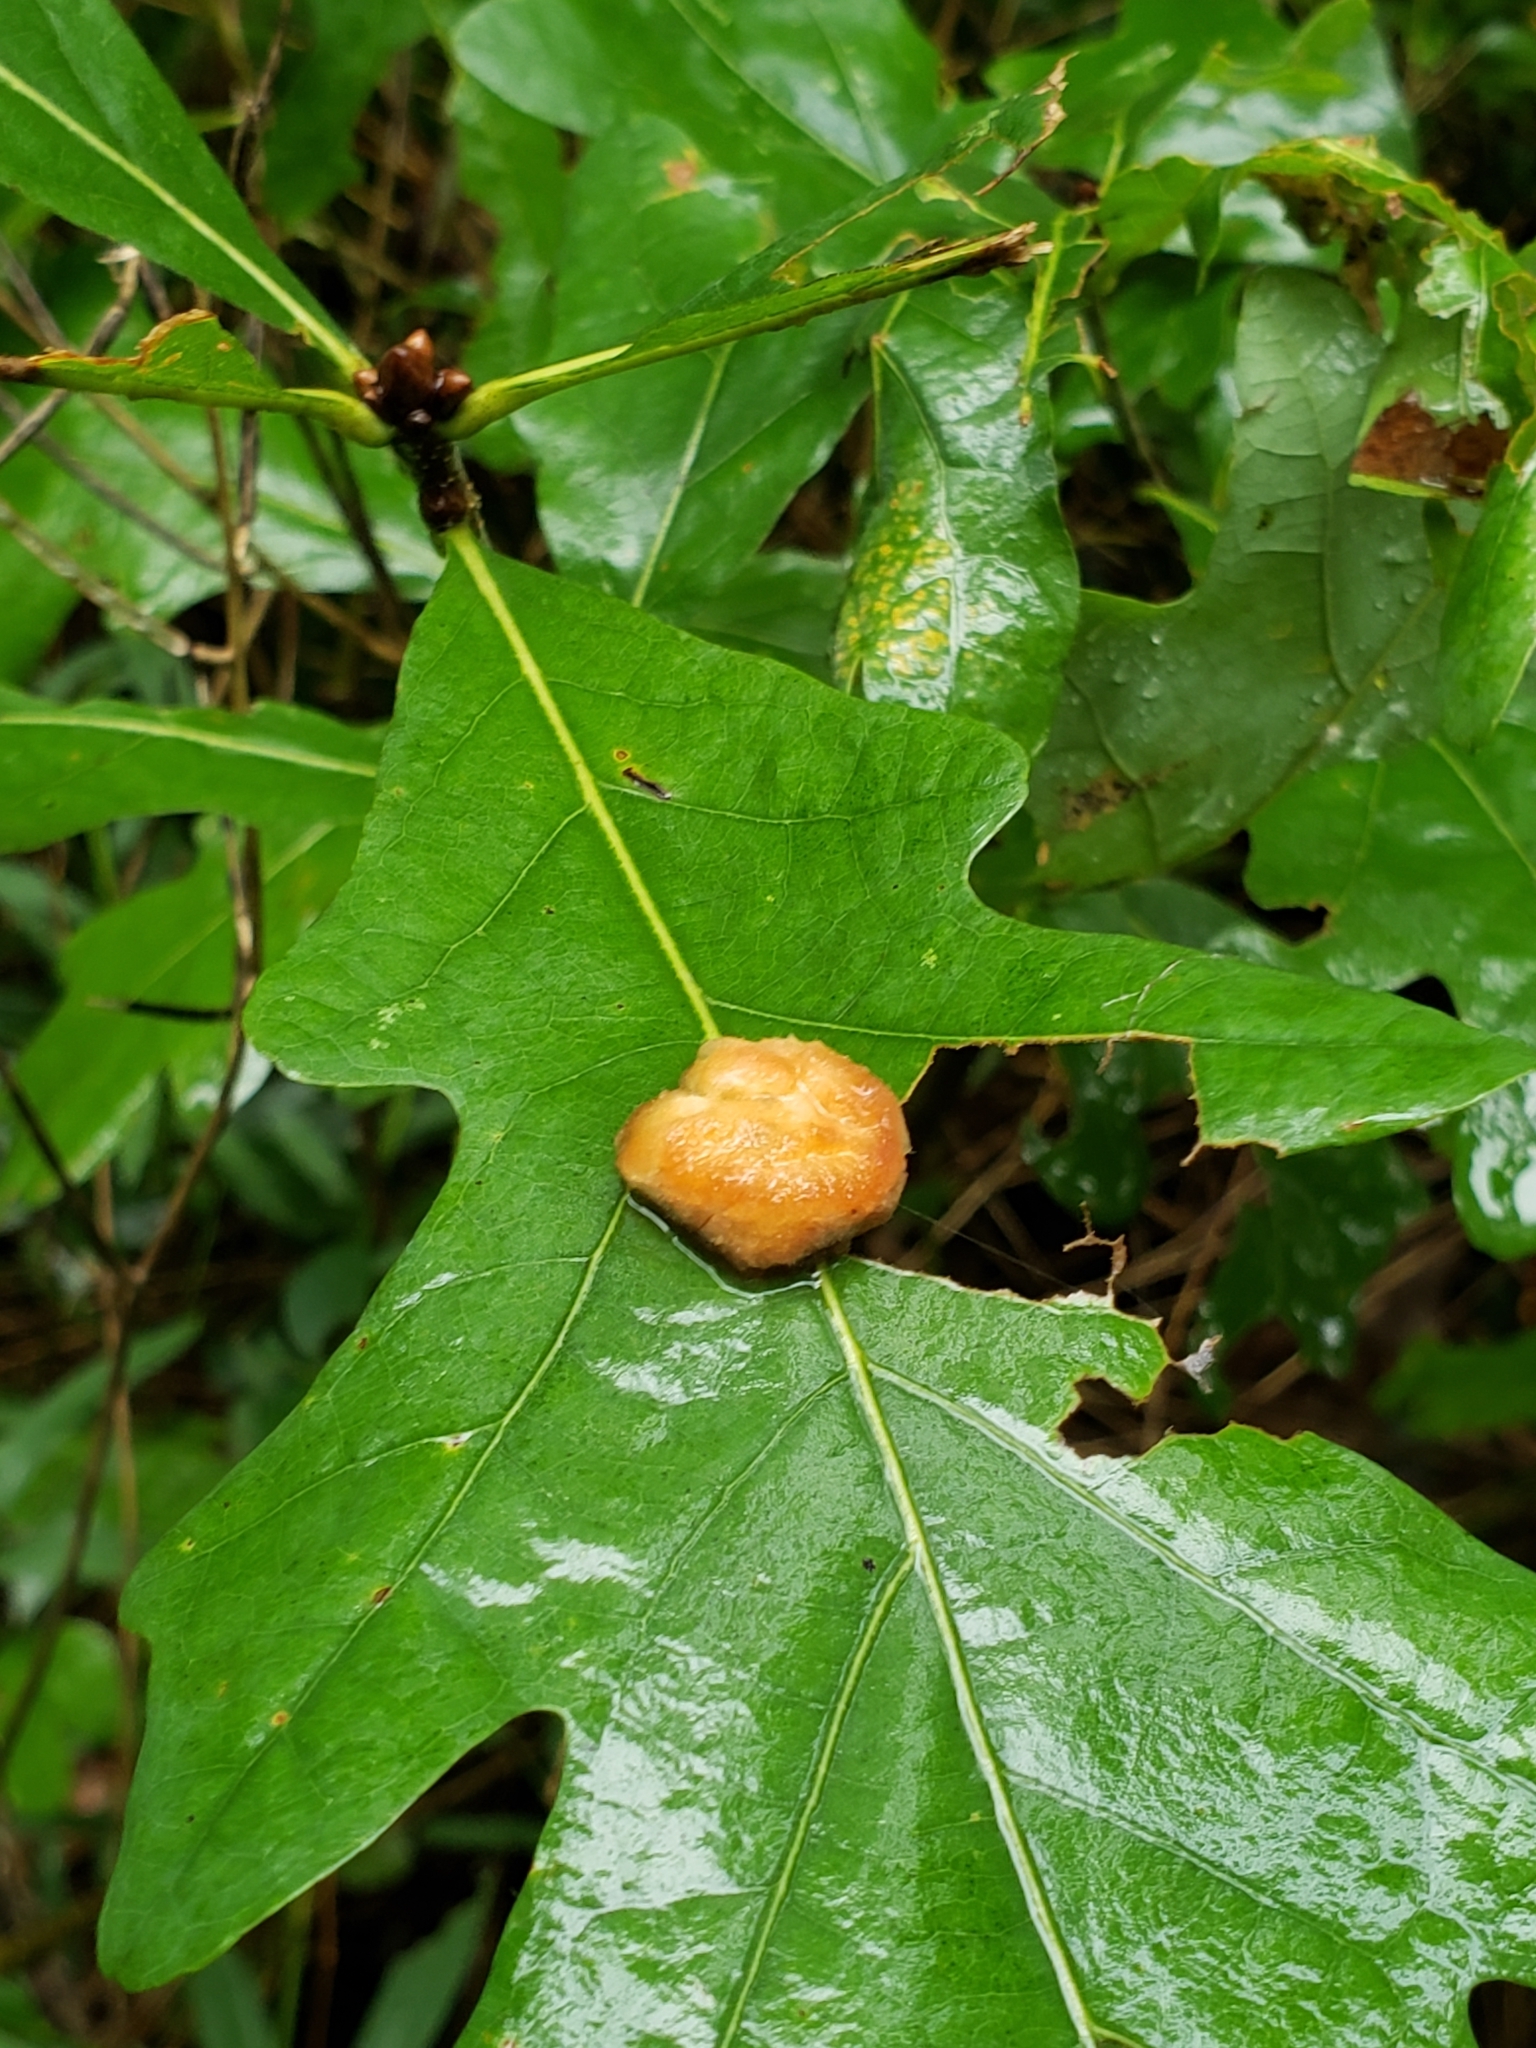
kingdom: Animalia
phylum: Arthropoda
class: Insecta
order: Hymenoptera
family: Cynipidae
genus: Andricus
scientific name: Andricus quercusflocci
